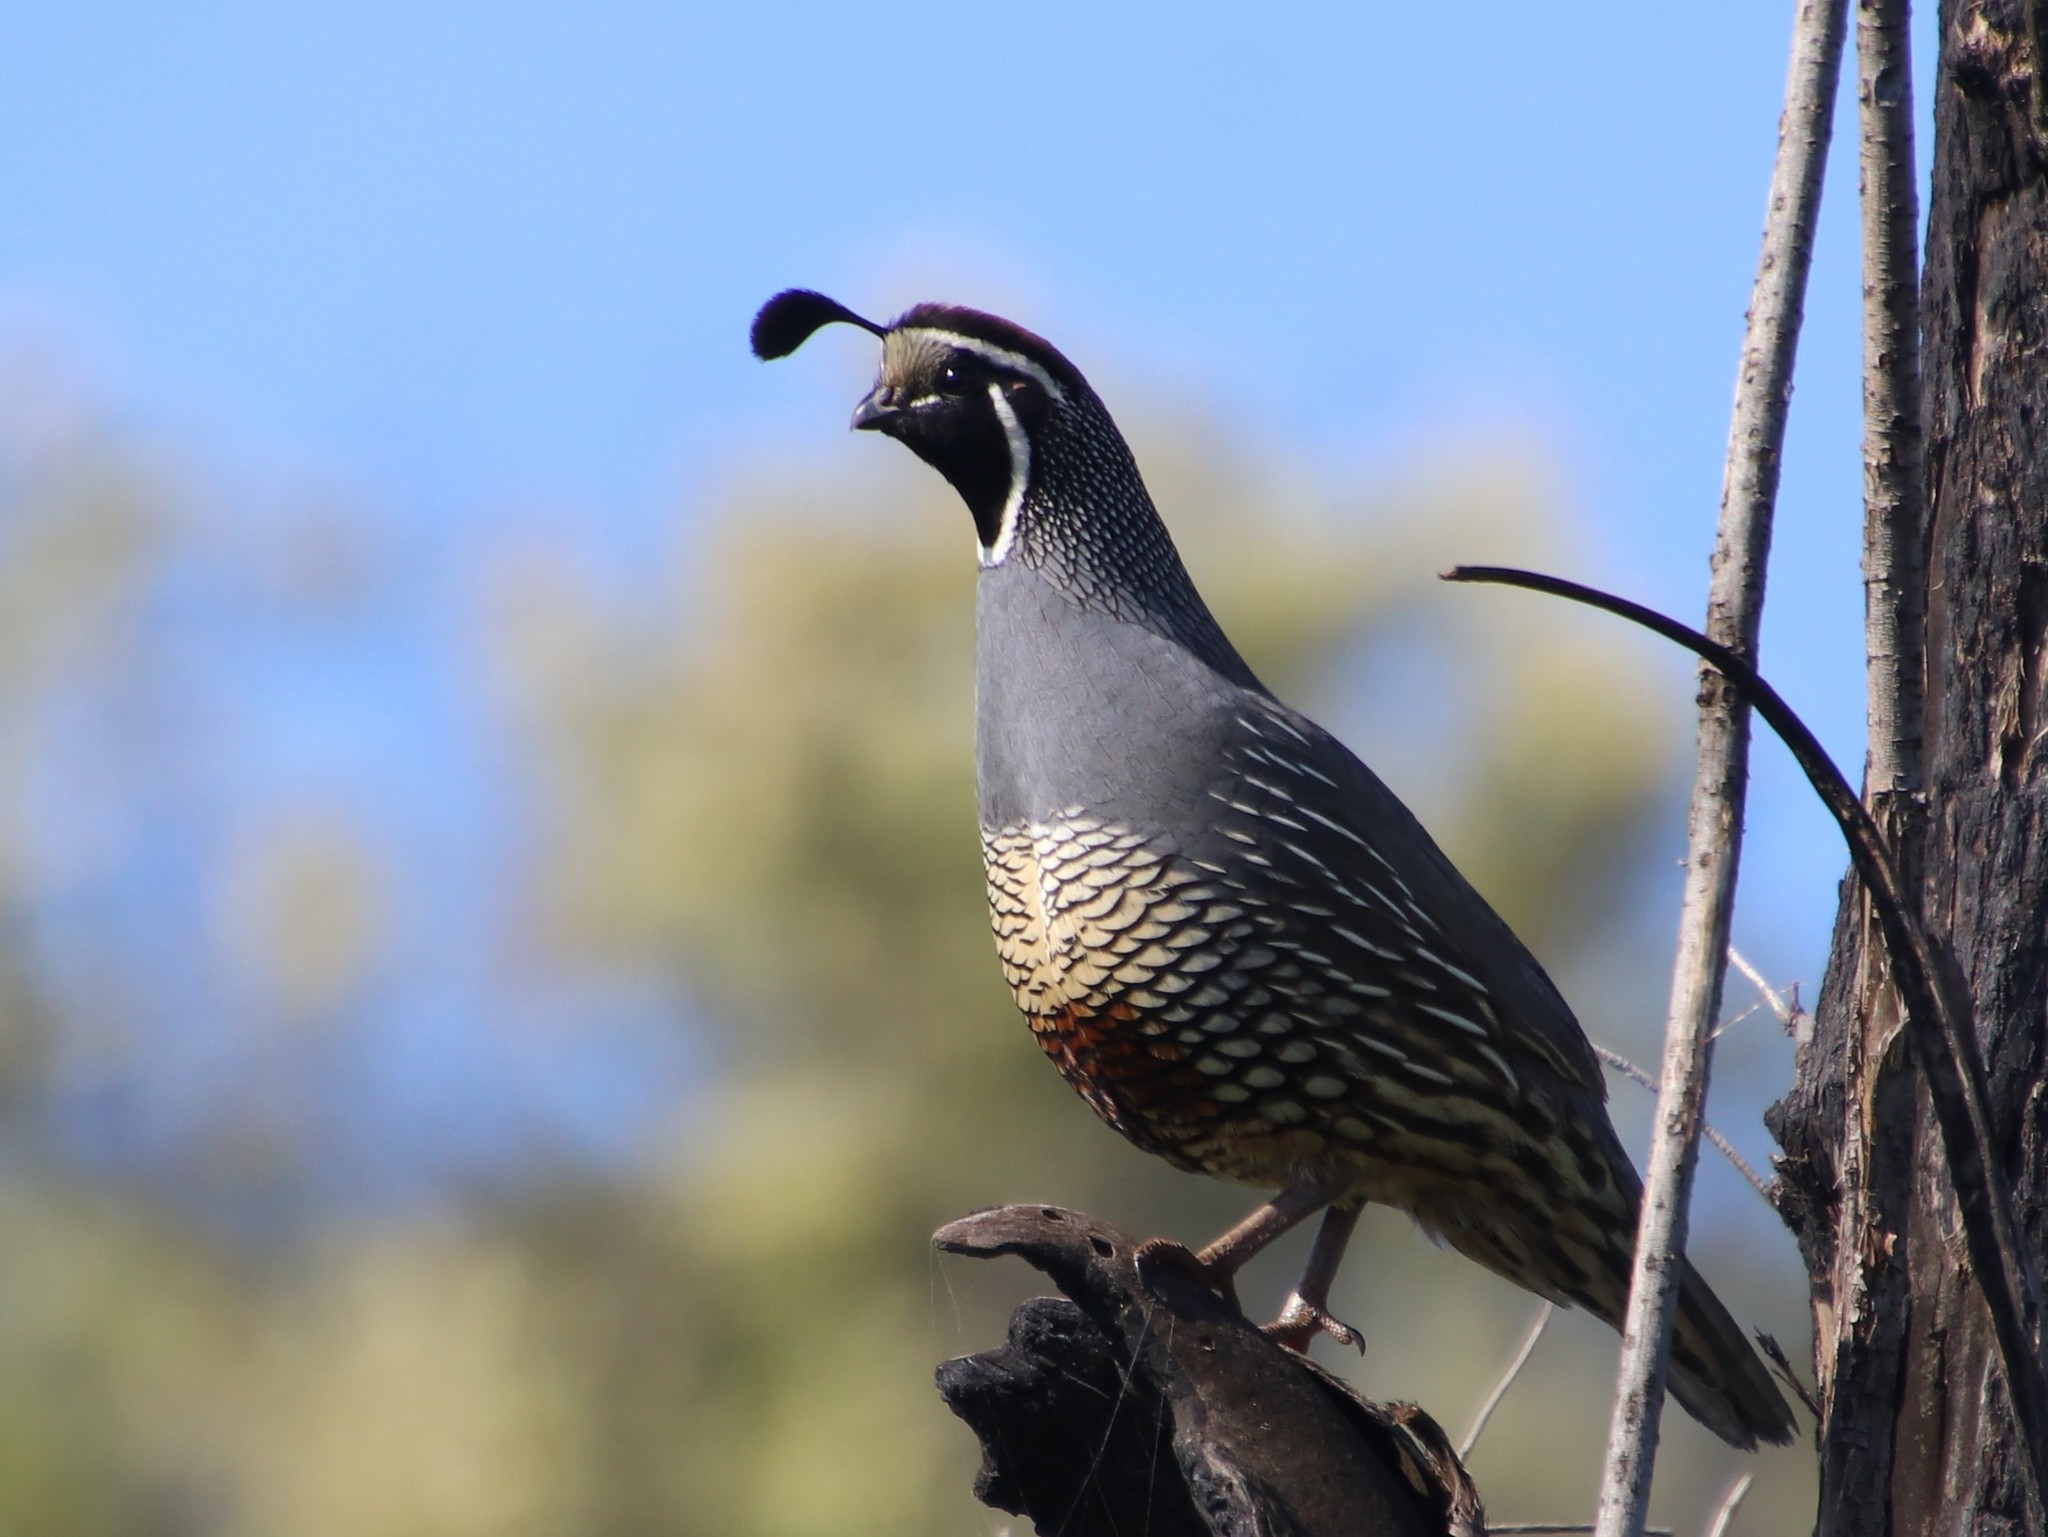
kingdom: Animalia
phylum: Chordata
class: Aves
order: Galliformes
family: Odontophoridae
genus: Callipepla
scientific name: Callipepla californica
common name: California quail
